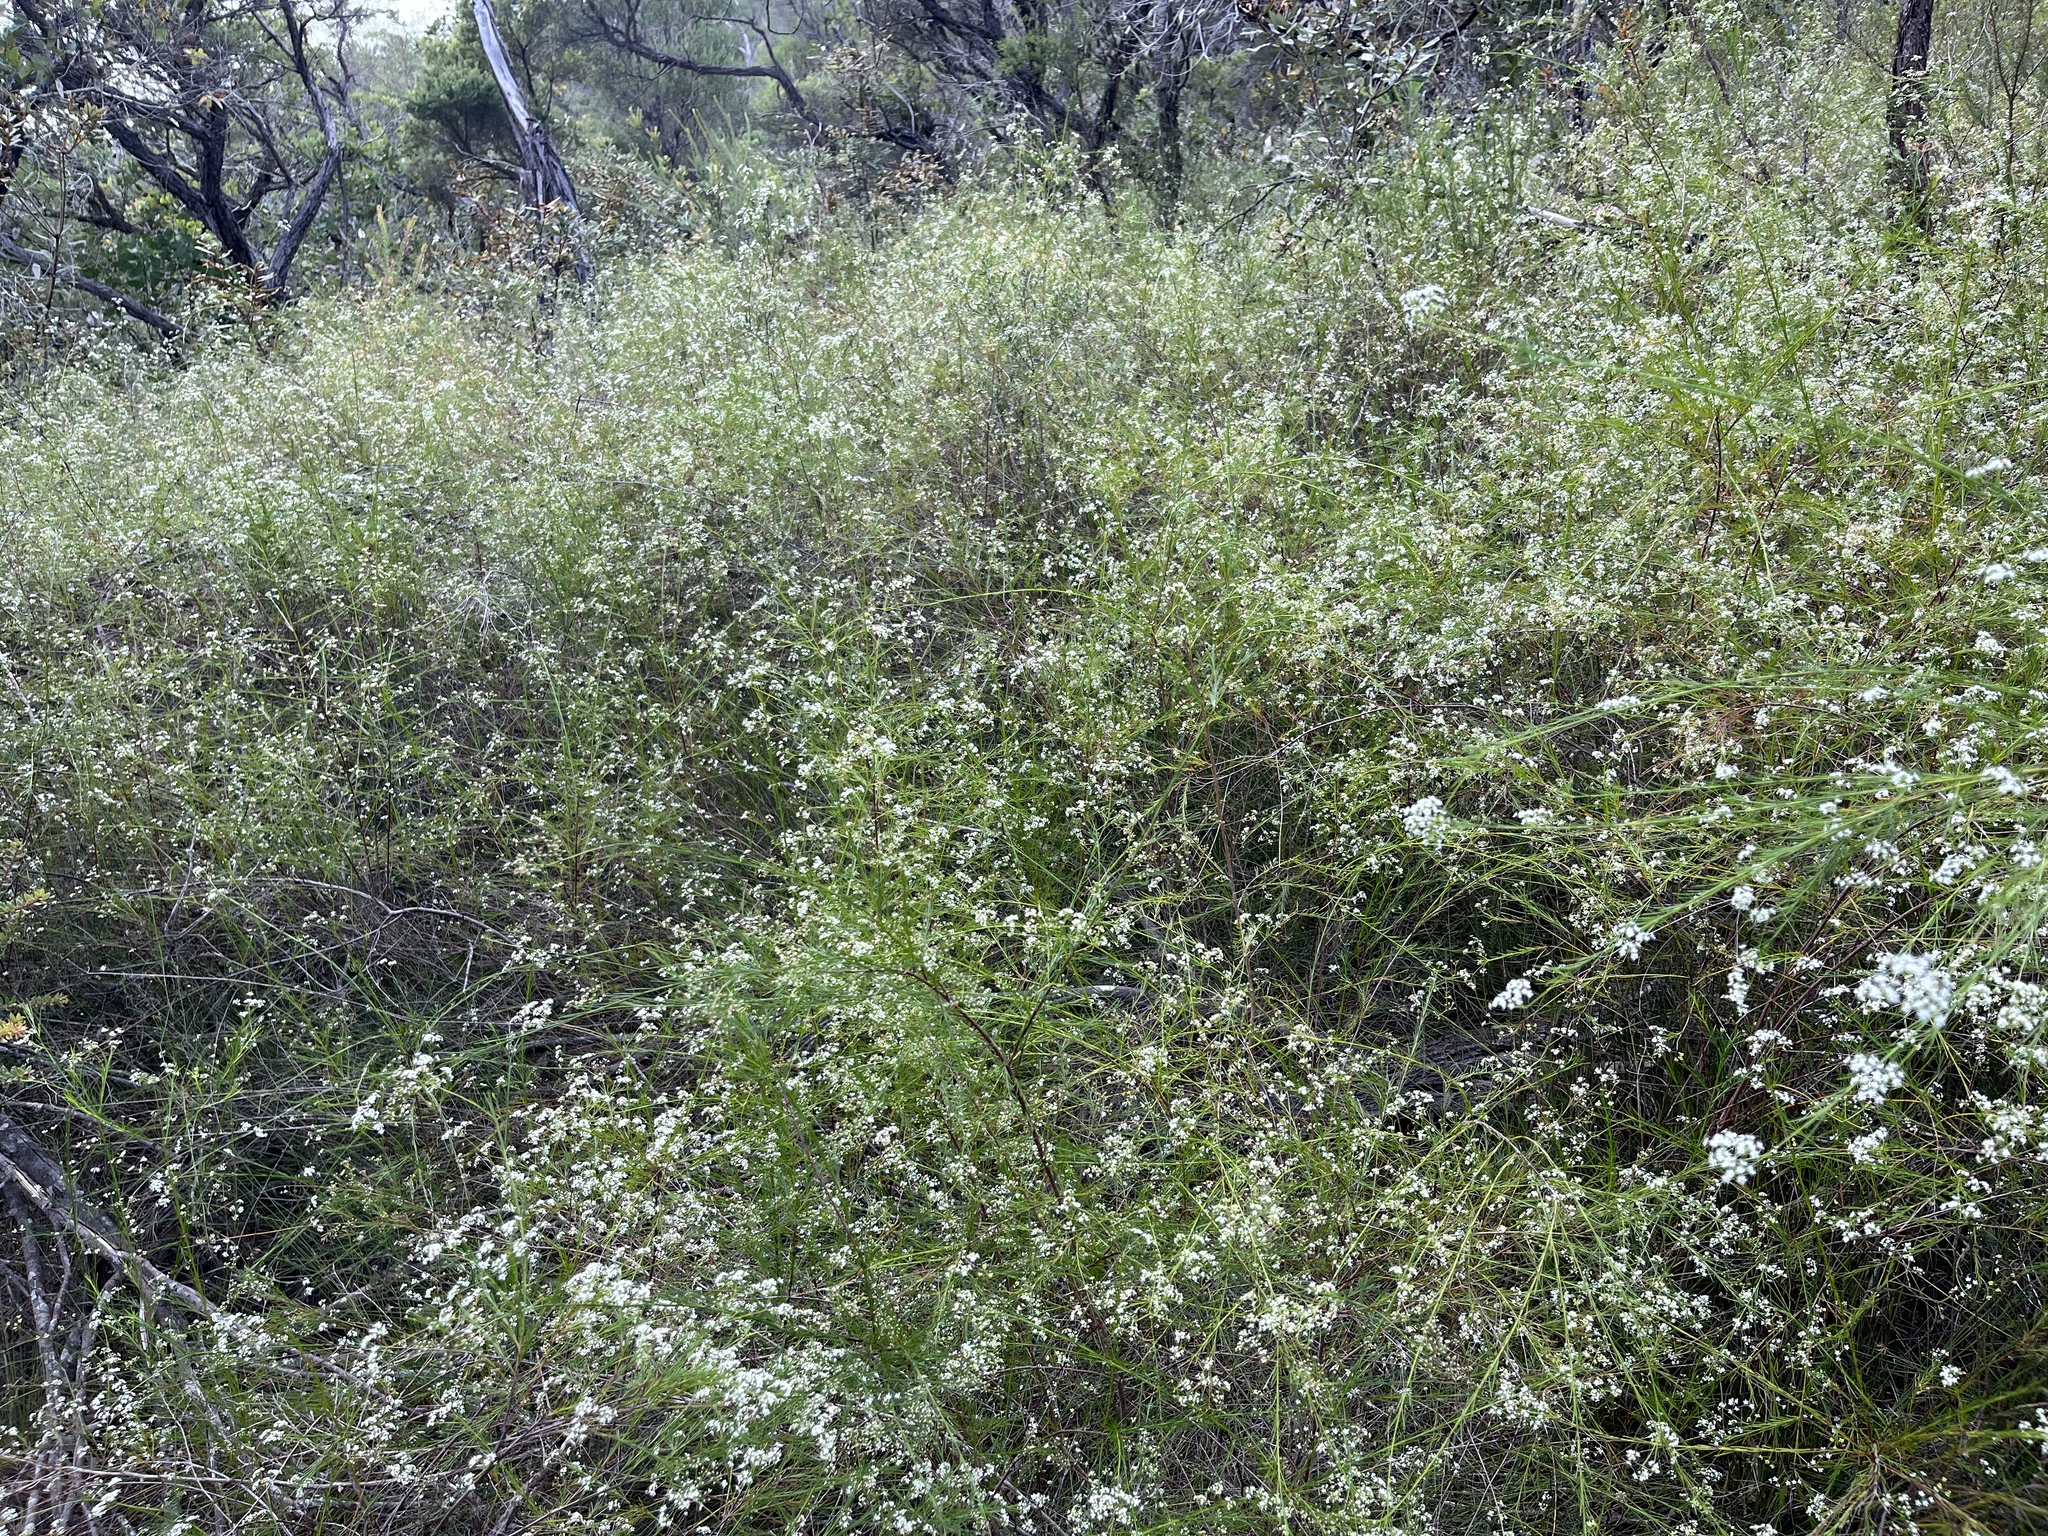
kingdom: Plantae
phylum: Tracheophyta
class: Magnoliopsida
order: Apiales
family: Apiaceae
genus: Platysace
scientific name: Platysace linearifolia
